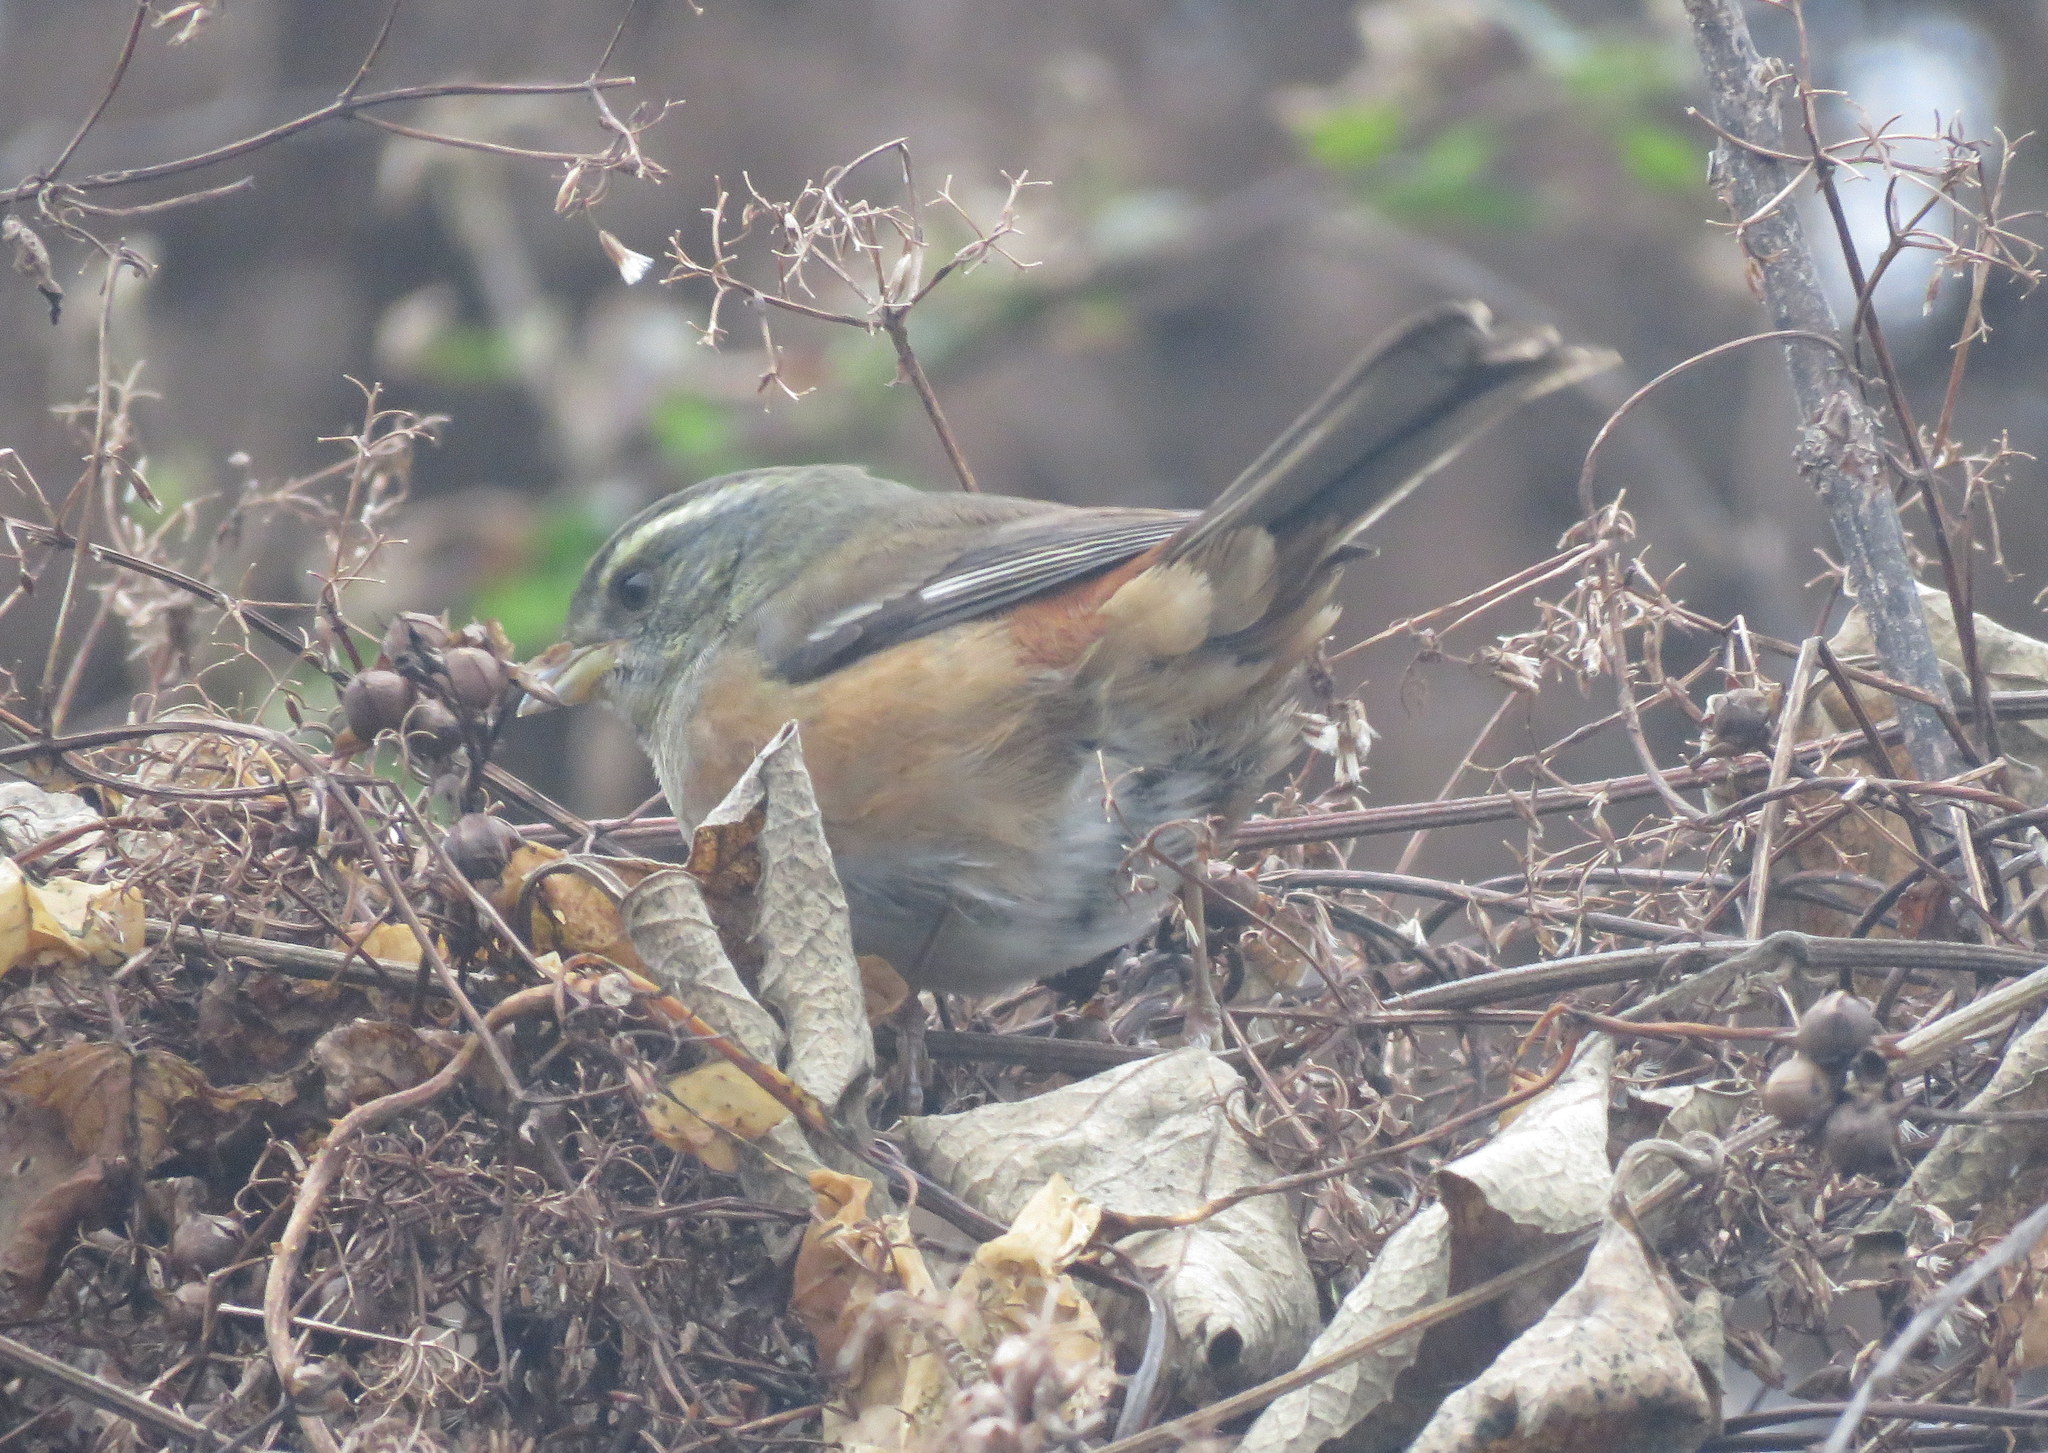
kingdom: Animalia
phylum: Chordata
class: Aves
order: Passeriformes
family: Thraupidae
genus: Microspingus
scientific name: Microspingus cabanisi
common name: Gray-throated warbling-finch
